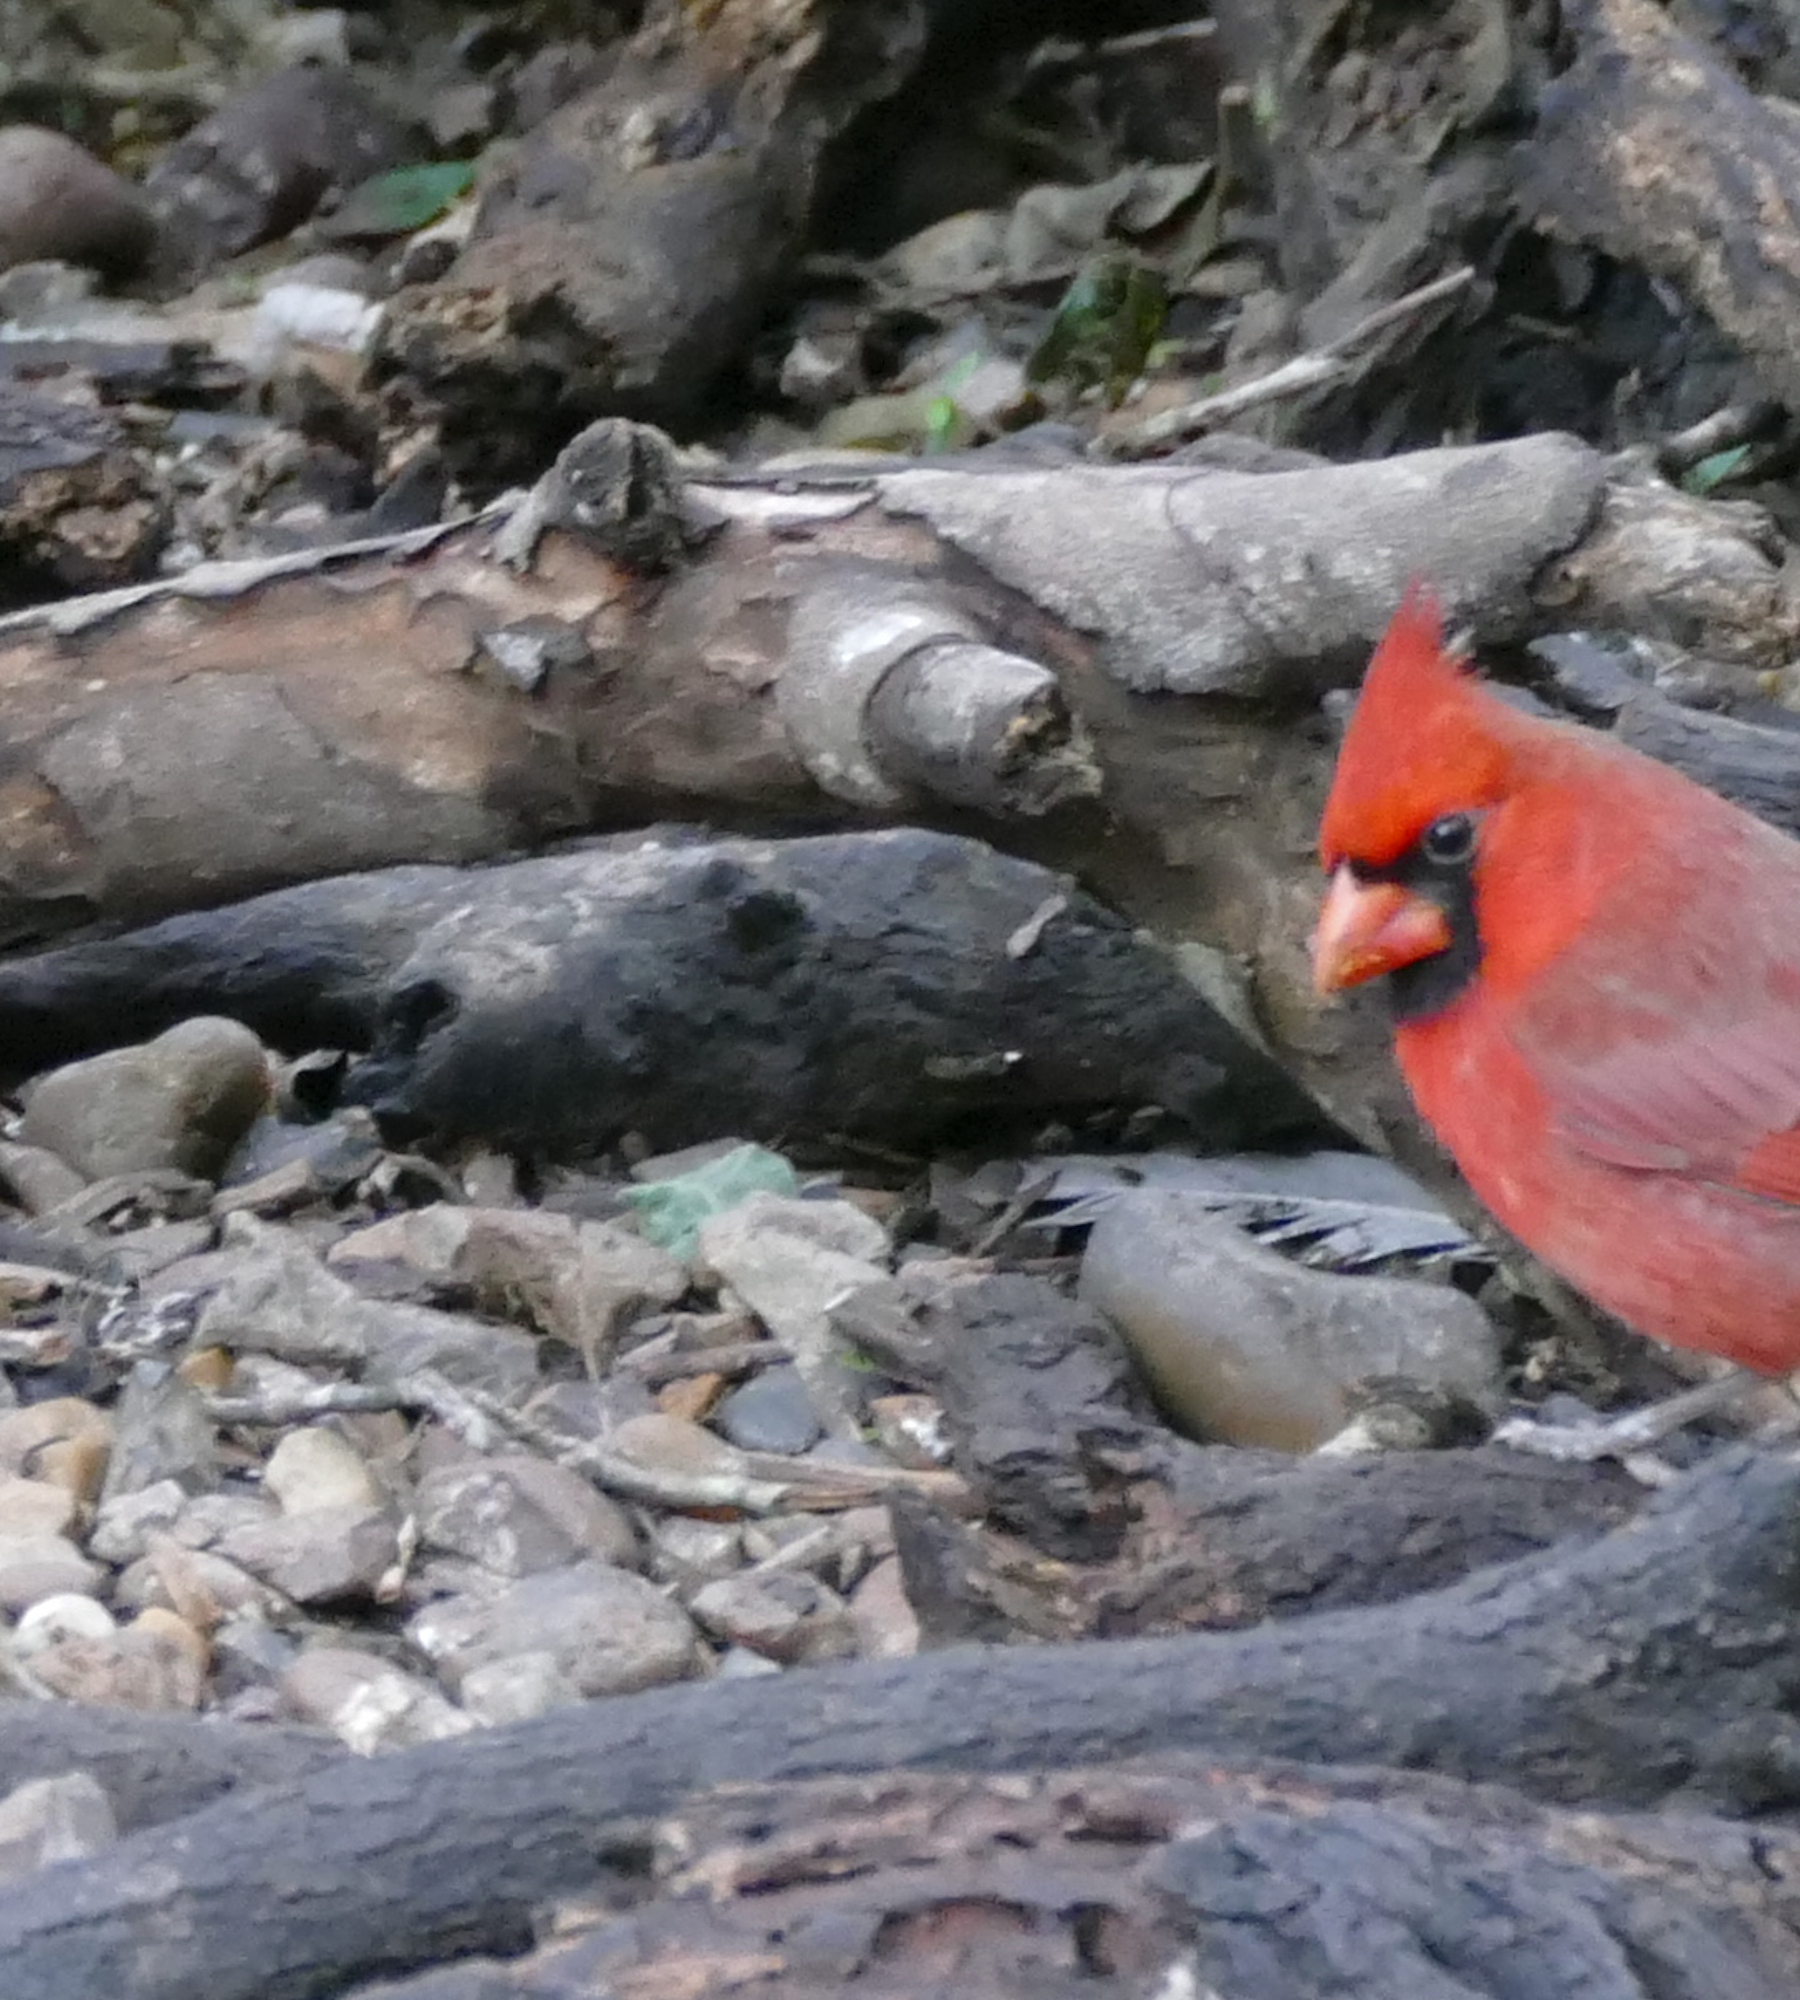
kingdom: Animalia
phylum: Chordata
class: Aves
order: Passeriformes
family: Cardinalidae
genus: Cardinalis
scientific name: Cardinalis cardinalis
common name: Northern cardinal
